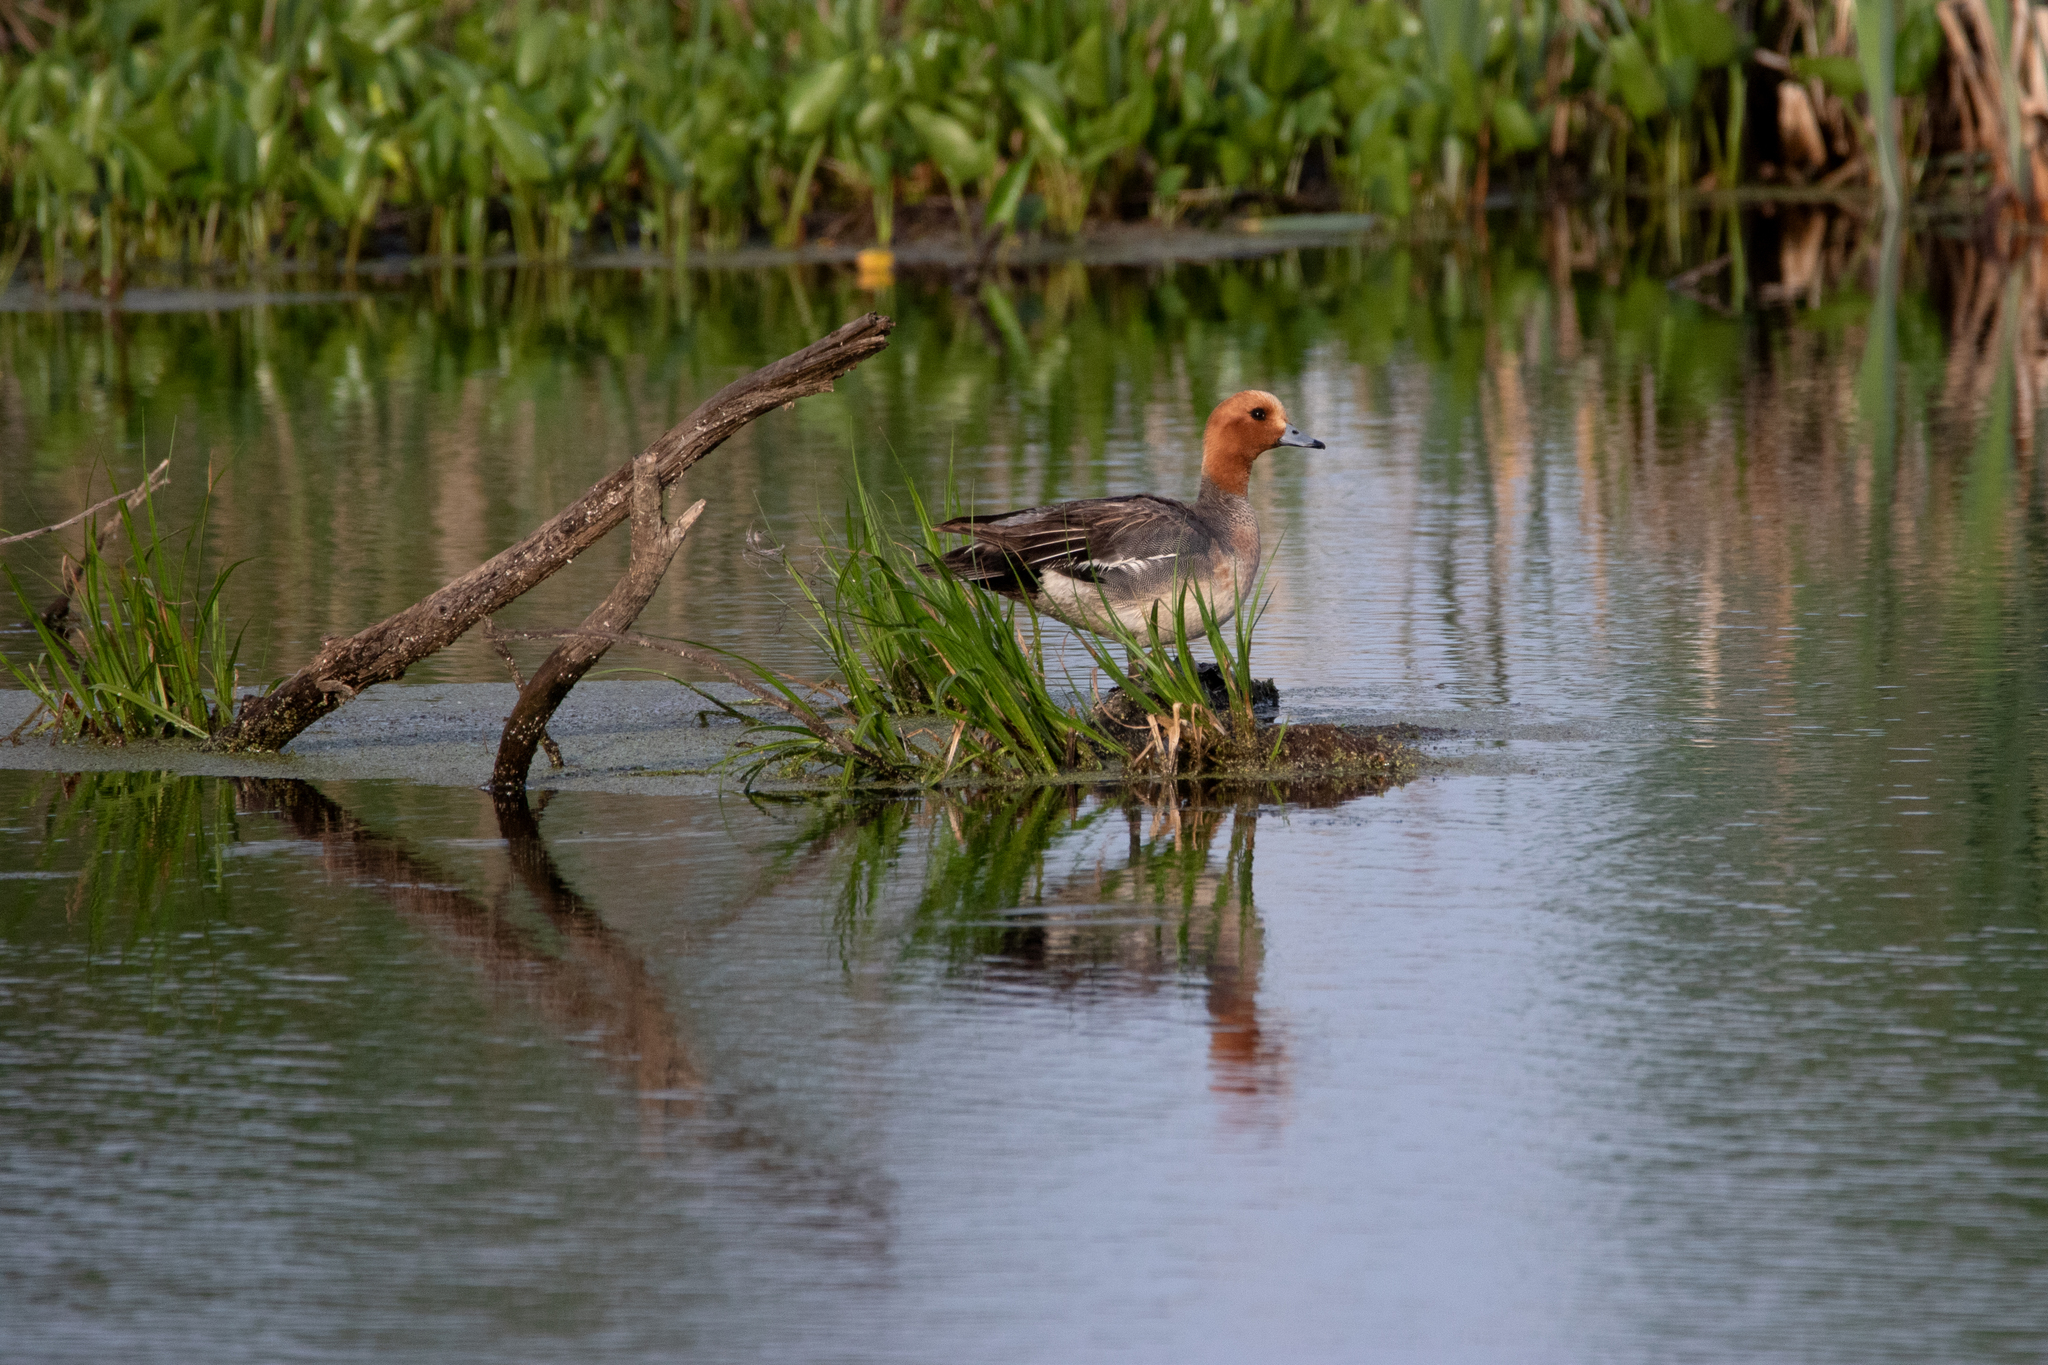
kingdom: Animalia
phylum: Chordata
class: Aves
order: Anseriformes
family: Anatidae
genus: Mareca
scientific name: Mareca penelope
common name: Eurasian wigeon
